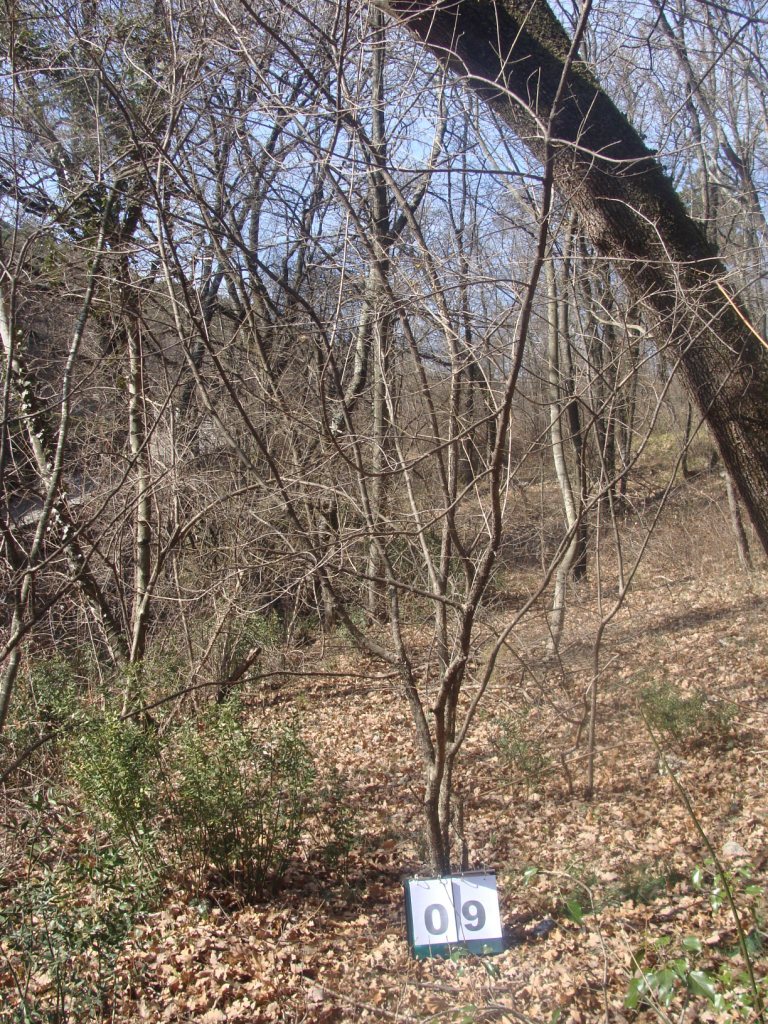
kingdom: Plantae
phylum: Tracheophyta
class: Magnoliopsida
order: Cornales
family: Cornaceae
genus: Cornus
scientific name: Cornus mas
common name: Cornelian-cherry
